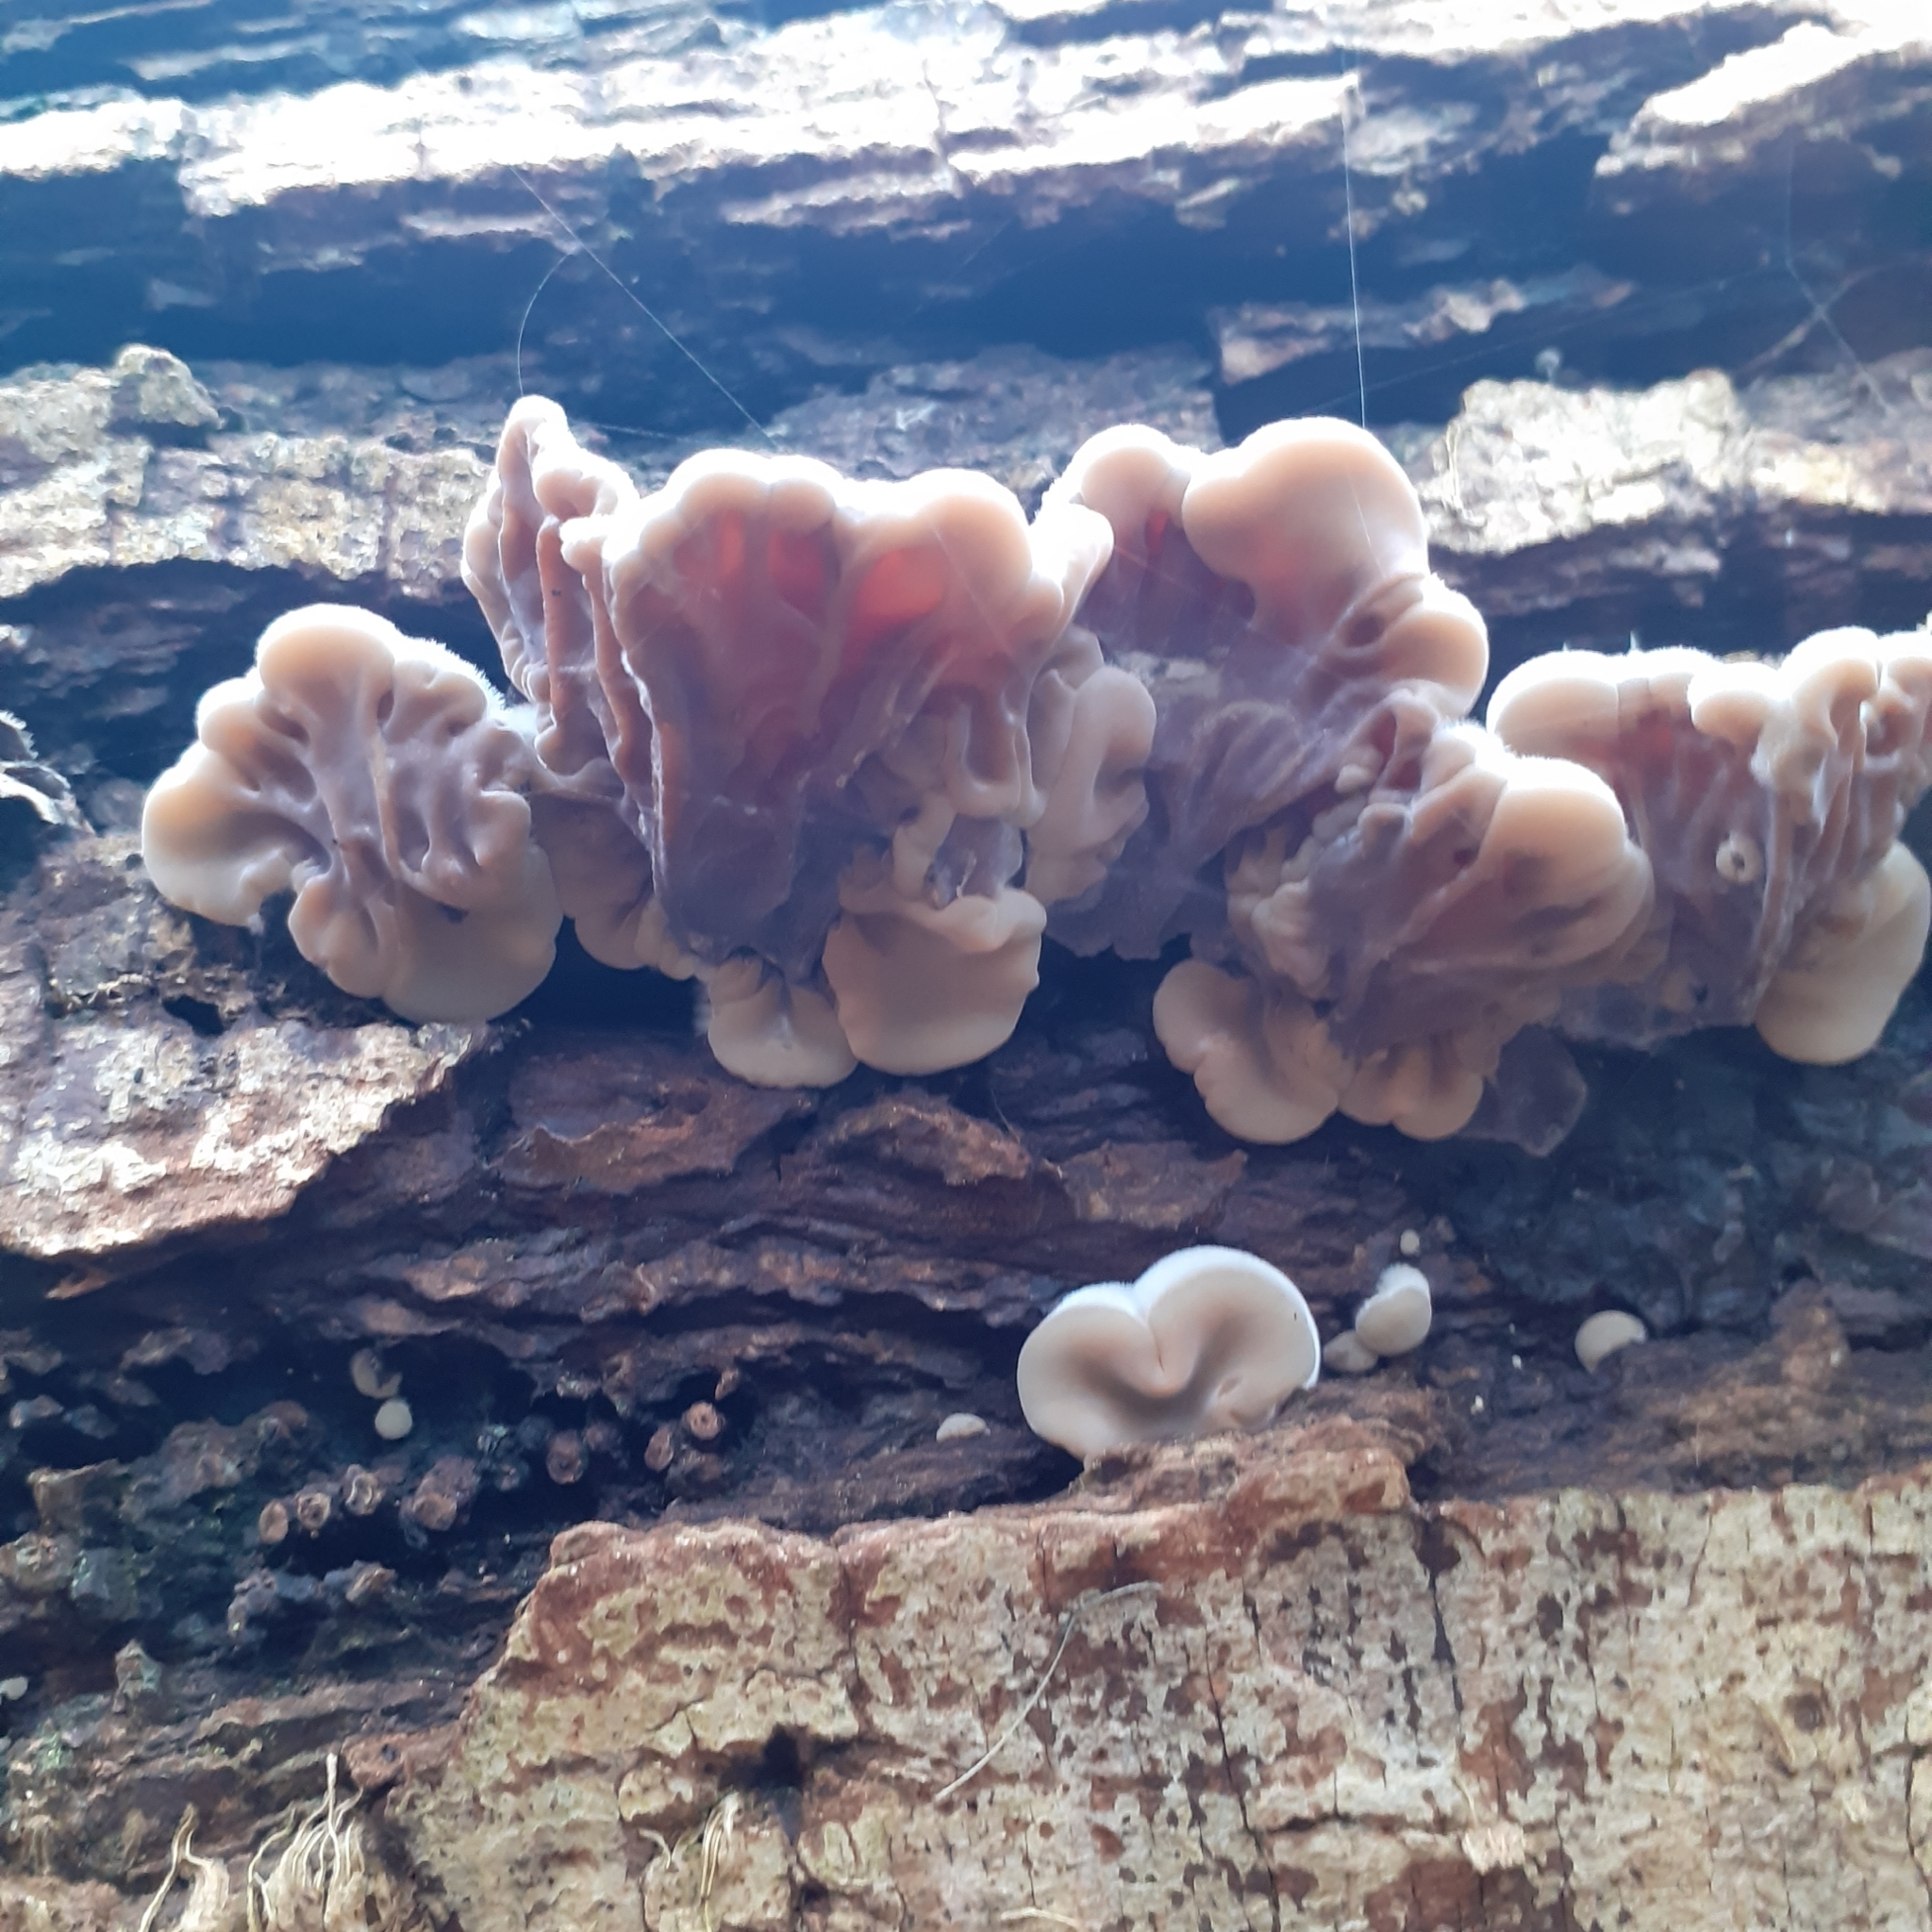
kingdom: Fungi
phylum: Basidiomycota
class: Agaricomycetes
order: Auriculariales
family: Auriculariaceae
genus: Auricularia
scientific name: Auricularia mesenterica
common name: Tripe fungus
